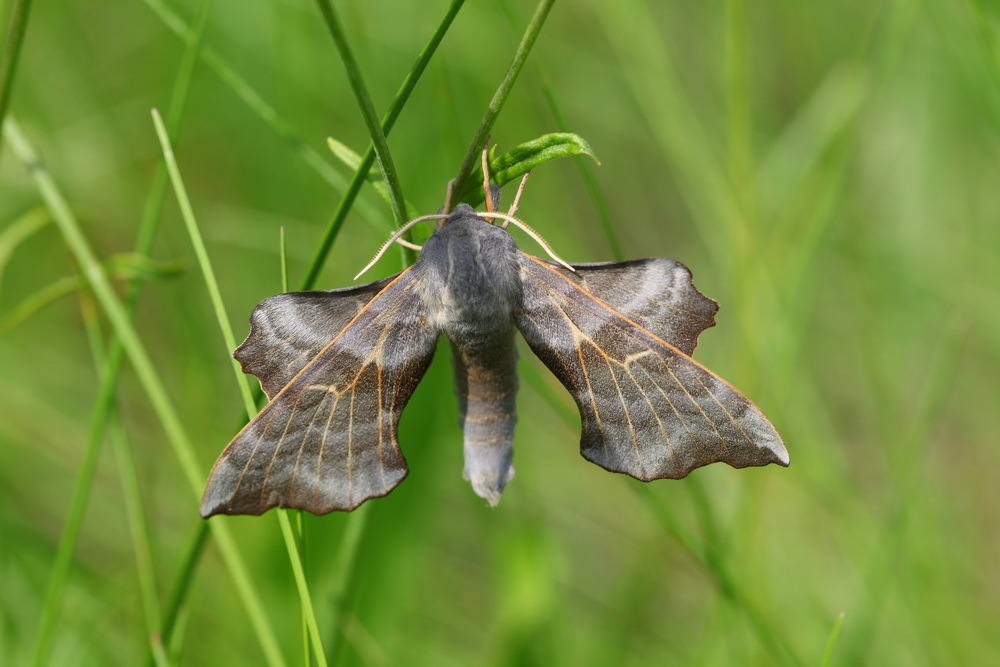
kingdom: Animalia
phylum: Arthropoda
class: Insecta
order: Lepidoptera
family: Sphingidae
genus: Laothoe
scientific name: Laothoe amurensis
